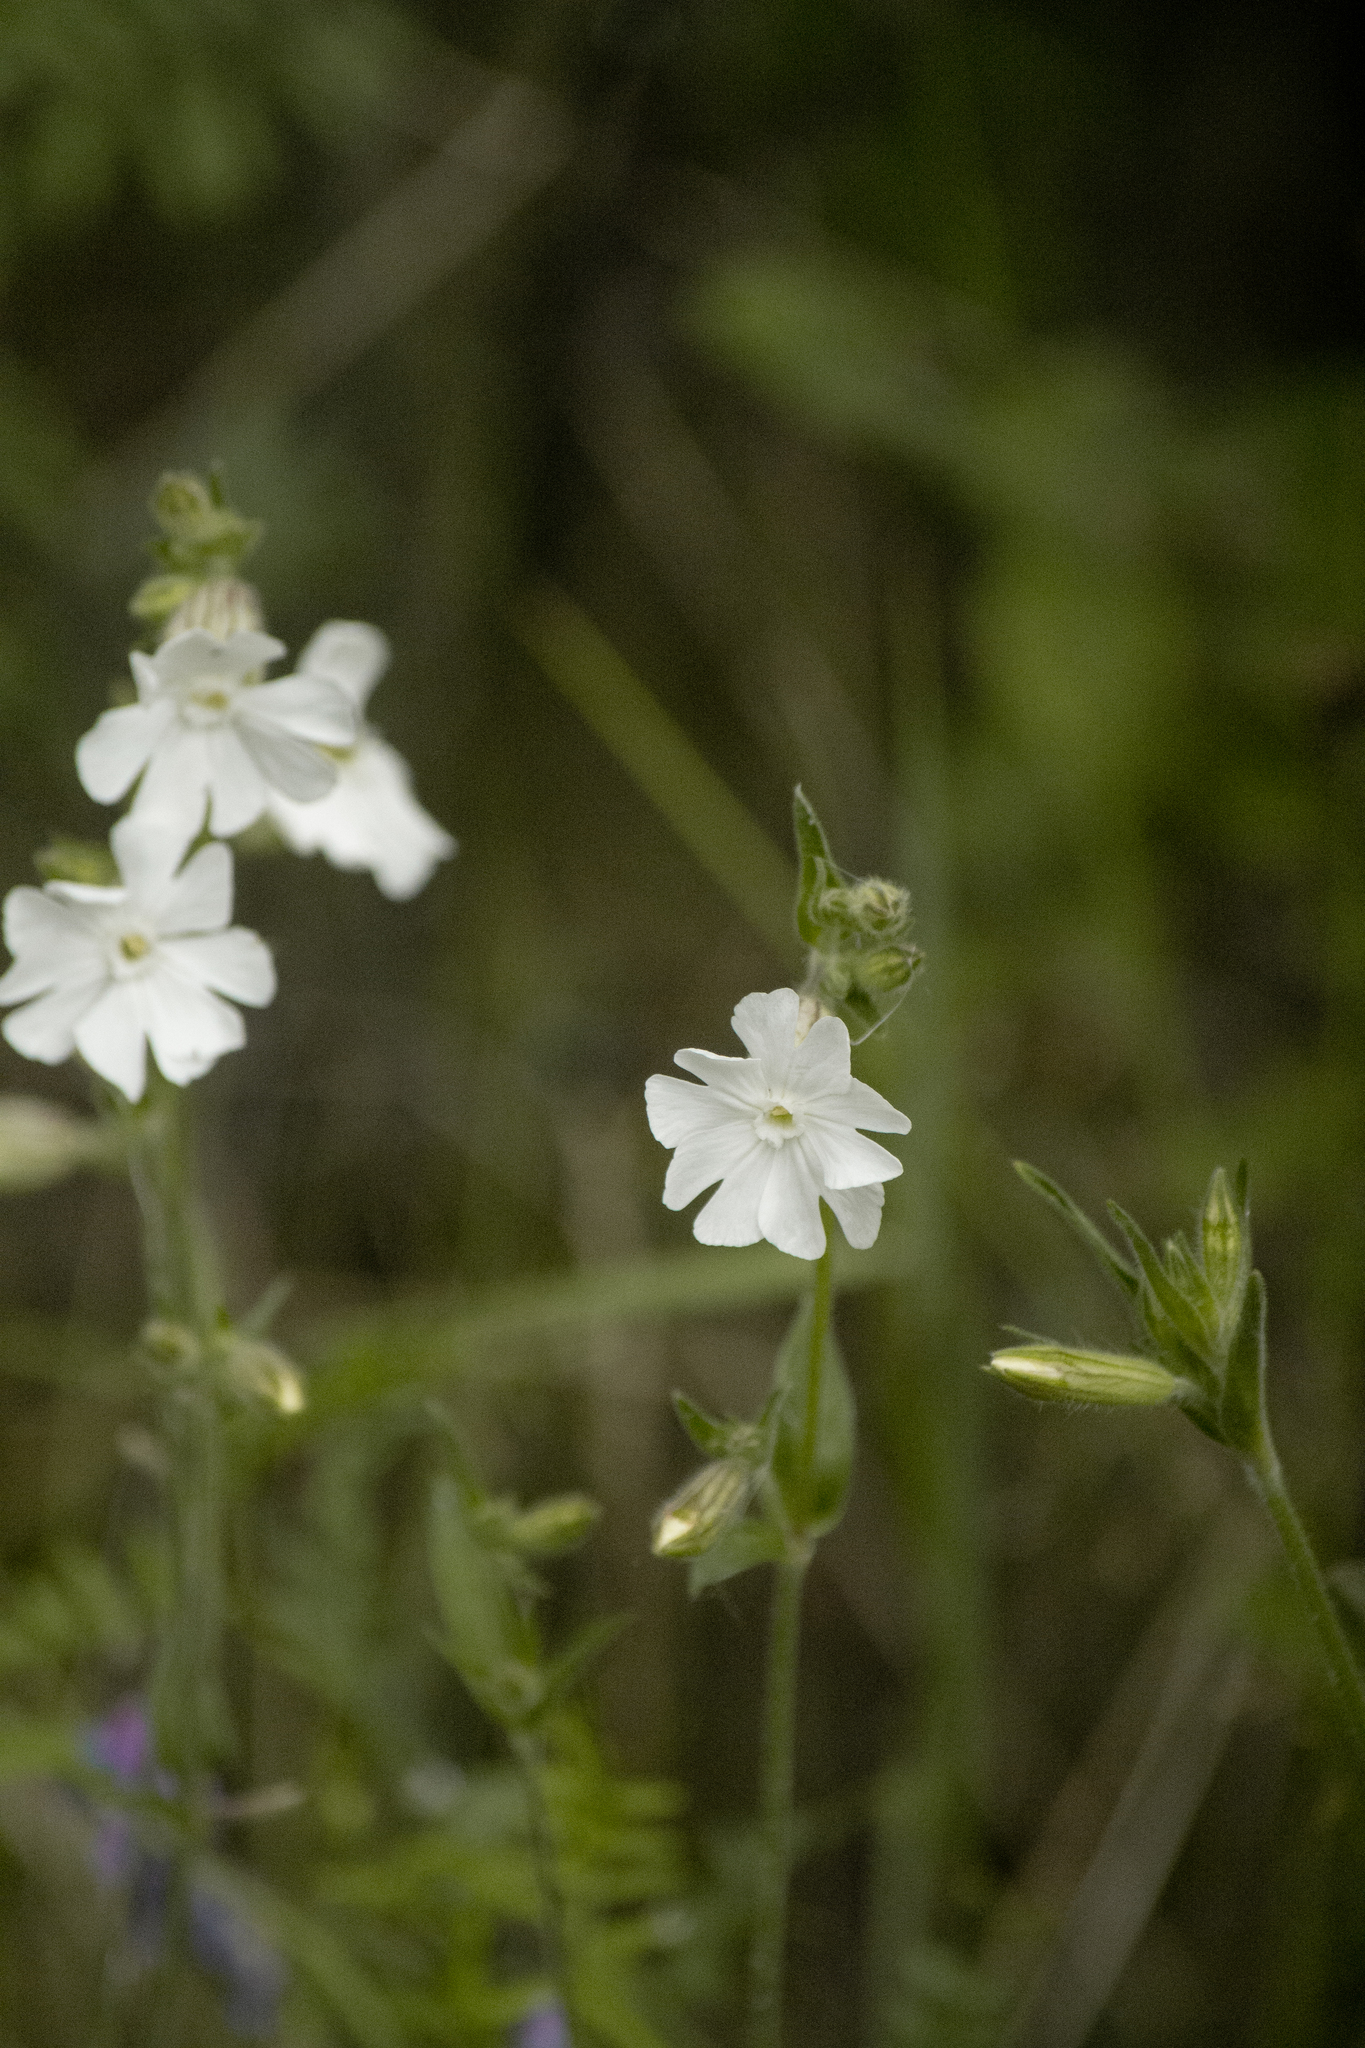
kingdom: Plantae
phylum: Tracheophyta
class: Magnoliopsida
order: Caryophyllales
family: Caryophyllaceae
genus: Silene
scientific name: Silene latifolia
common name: White campion
